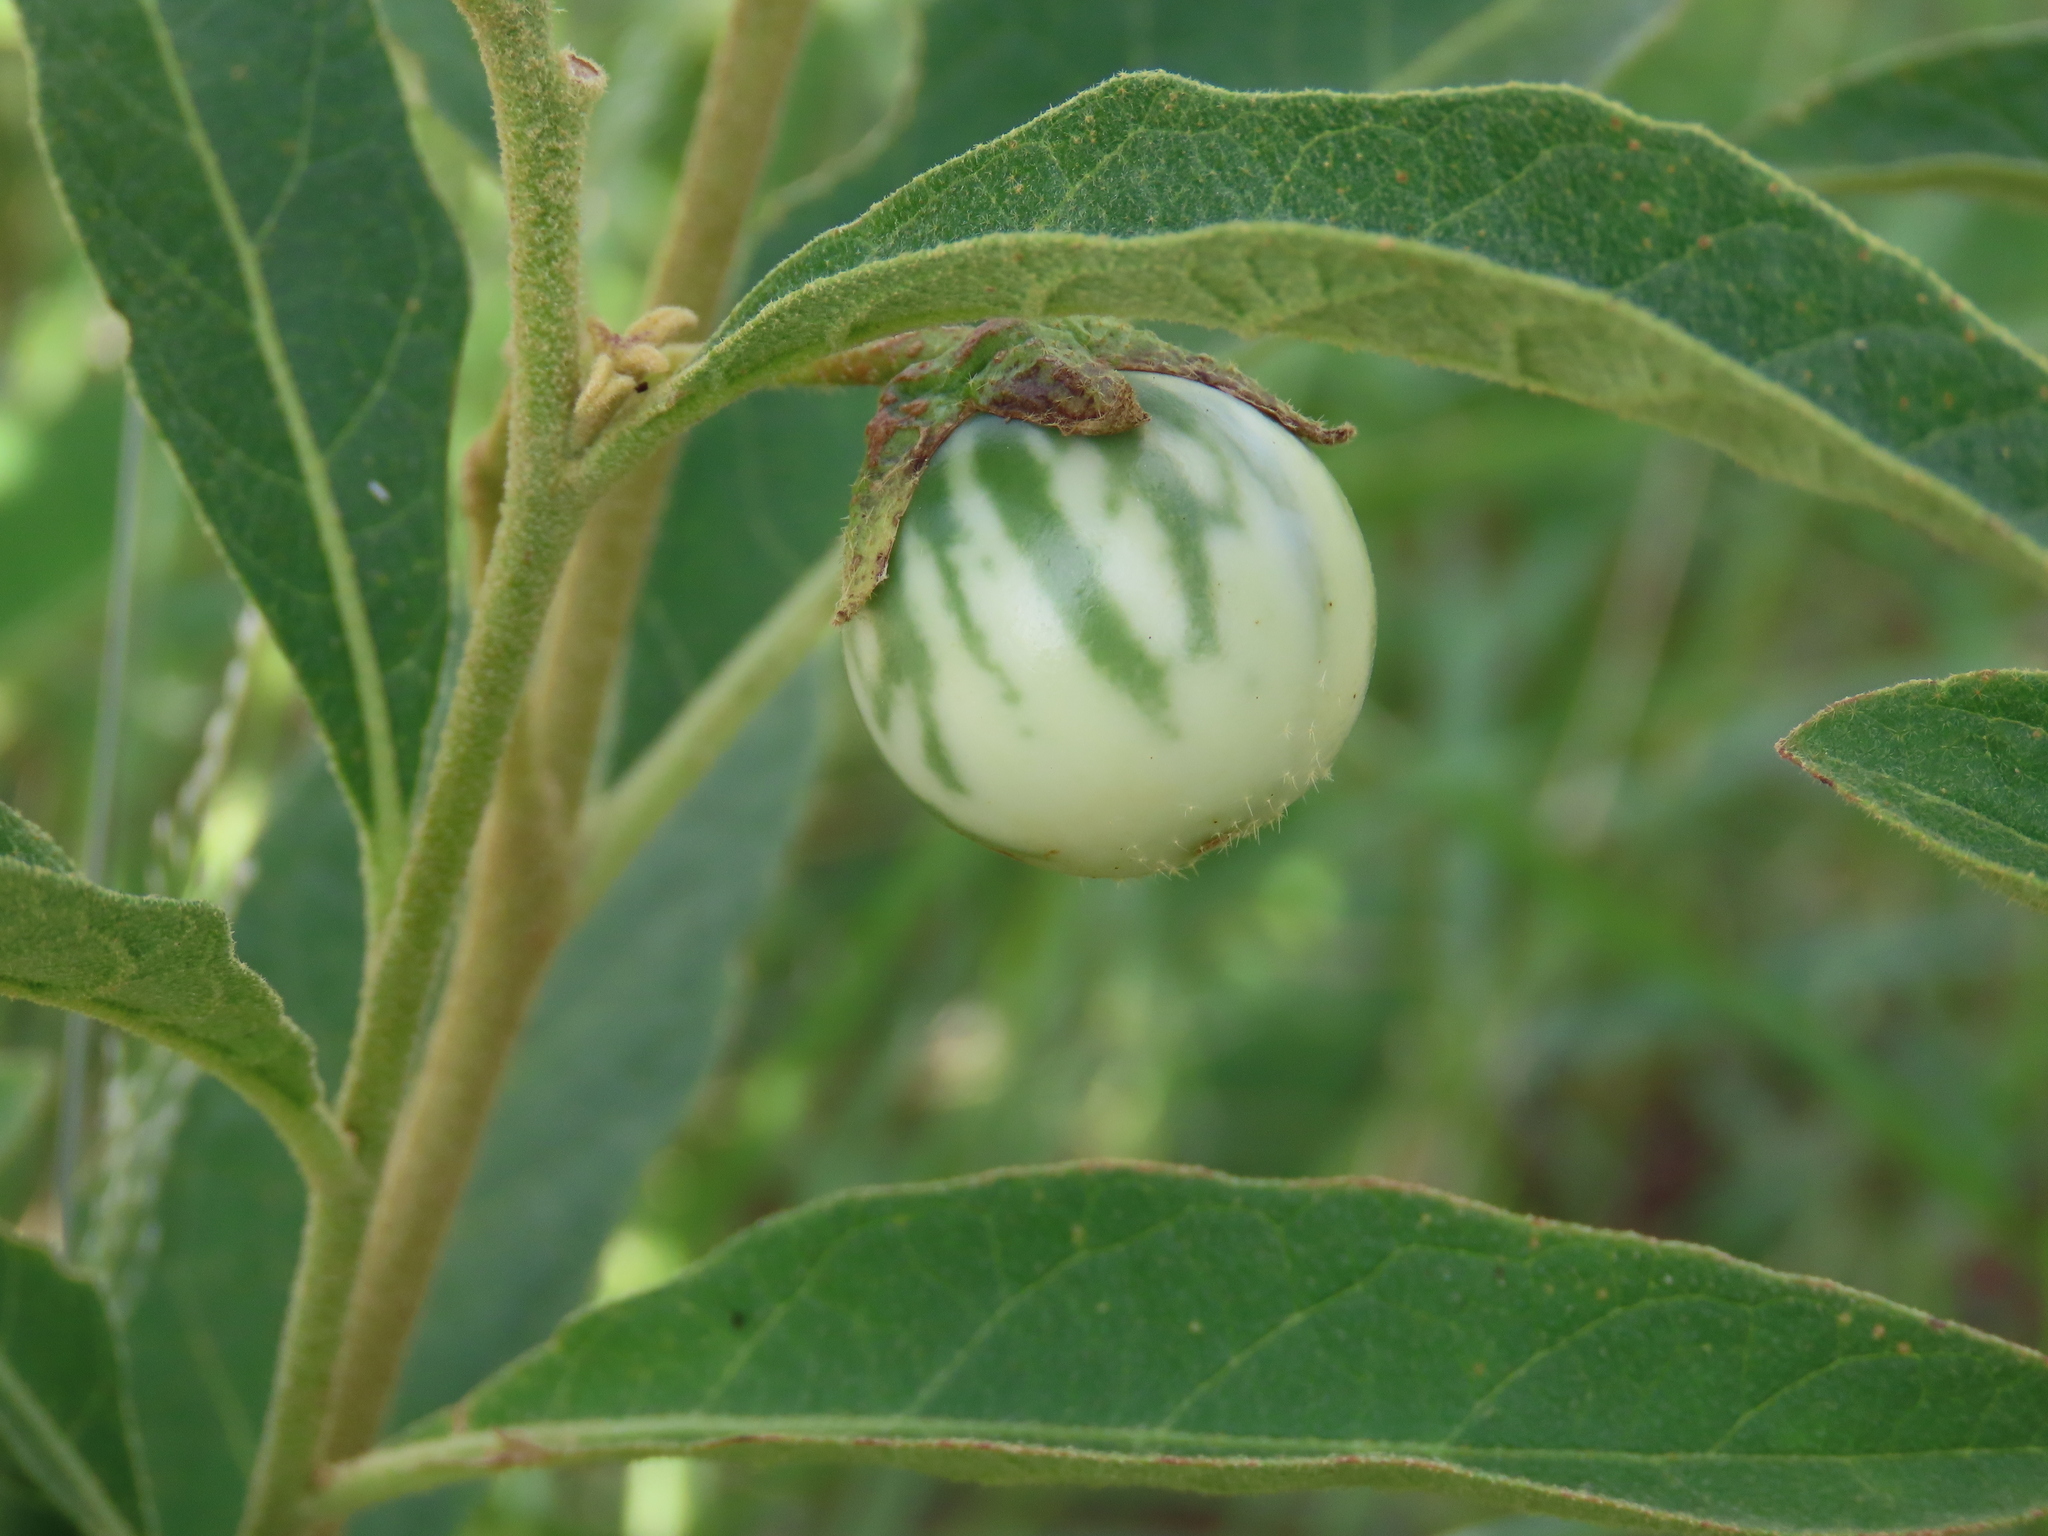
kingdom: Plantae
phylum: Tracheophyta
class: Magnoliopsida
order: Solanales
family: Solanaceae
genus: Solanum
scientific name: Solanum campylacanthum
